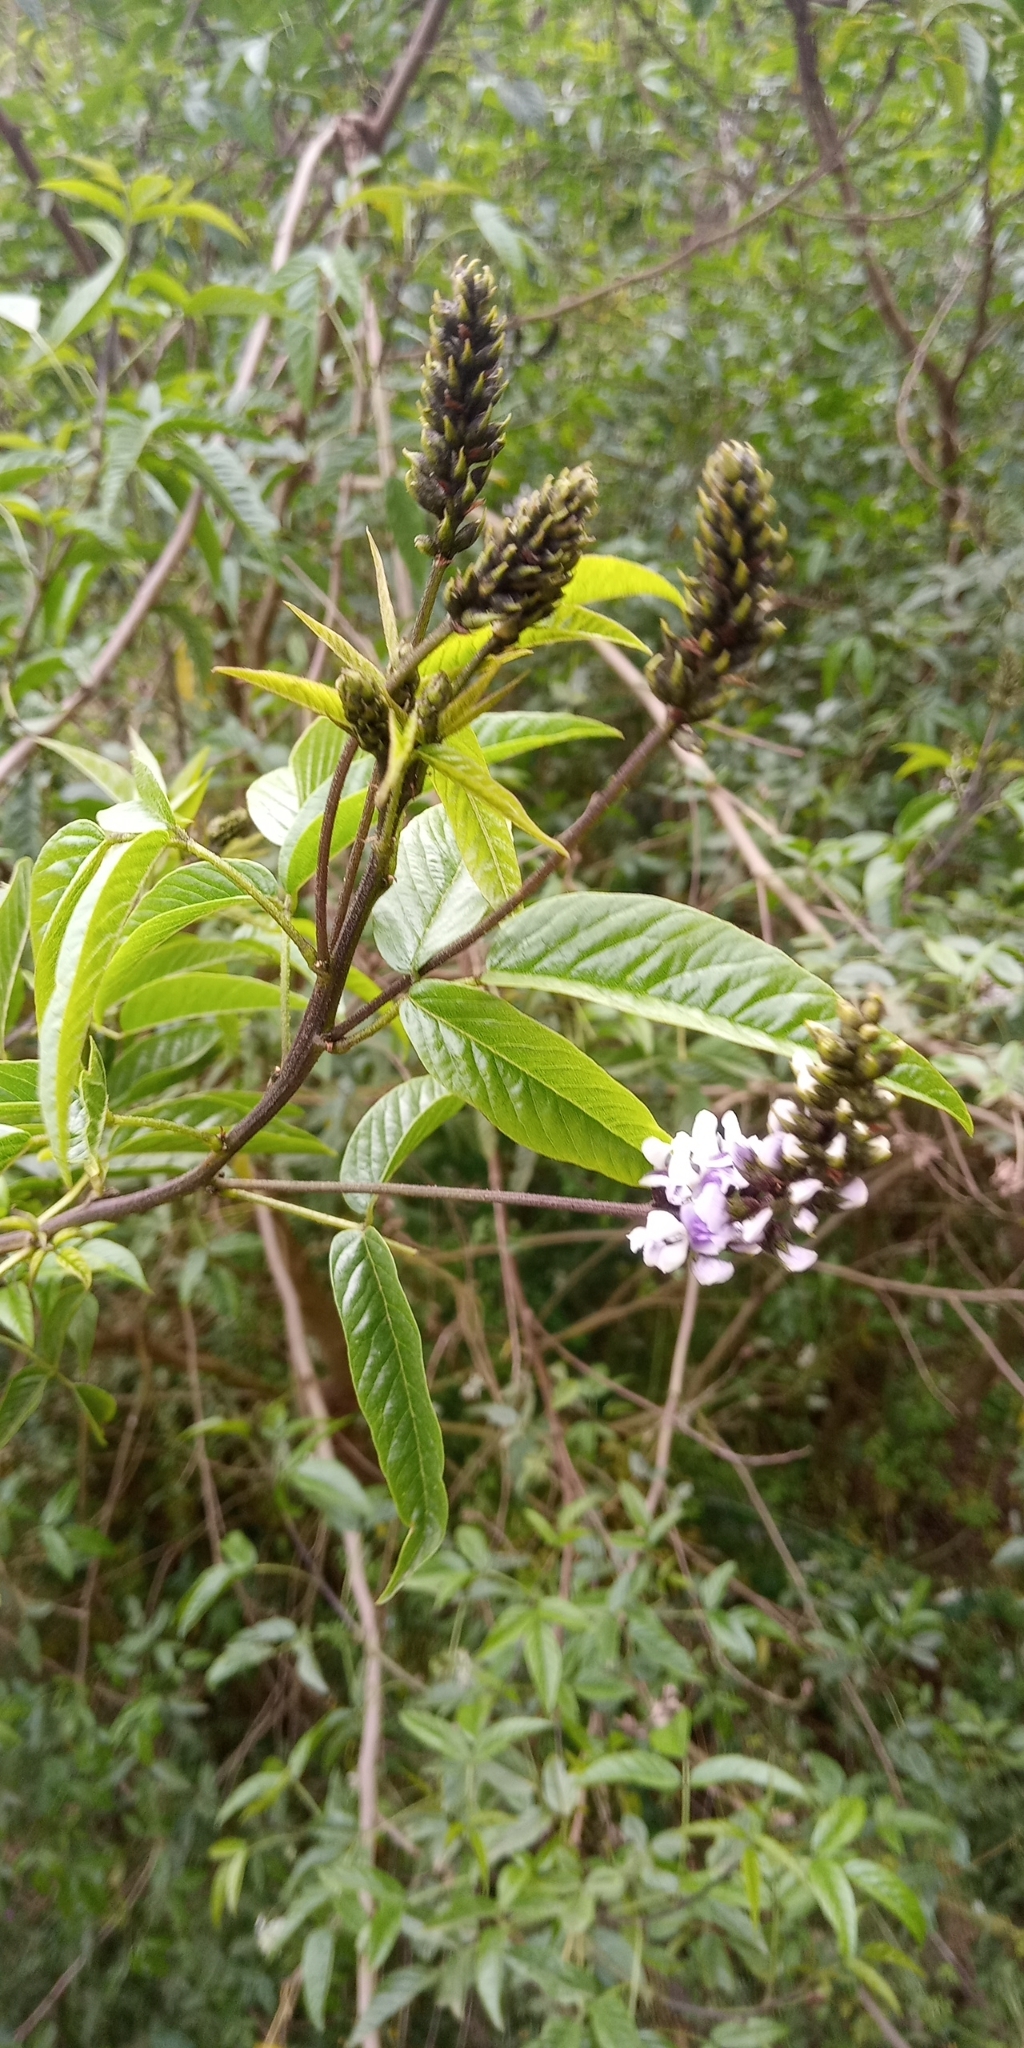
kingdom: Plantae
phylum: Tracheophyta
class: Magnoliopsida
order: Fabales
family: Fabaceae
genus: Psoralea
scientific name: Psoralea Otholobium glandulosum
